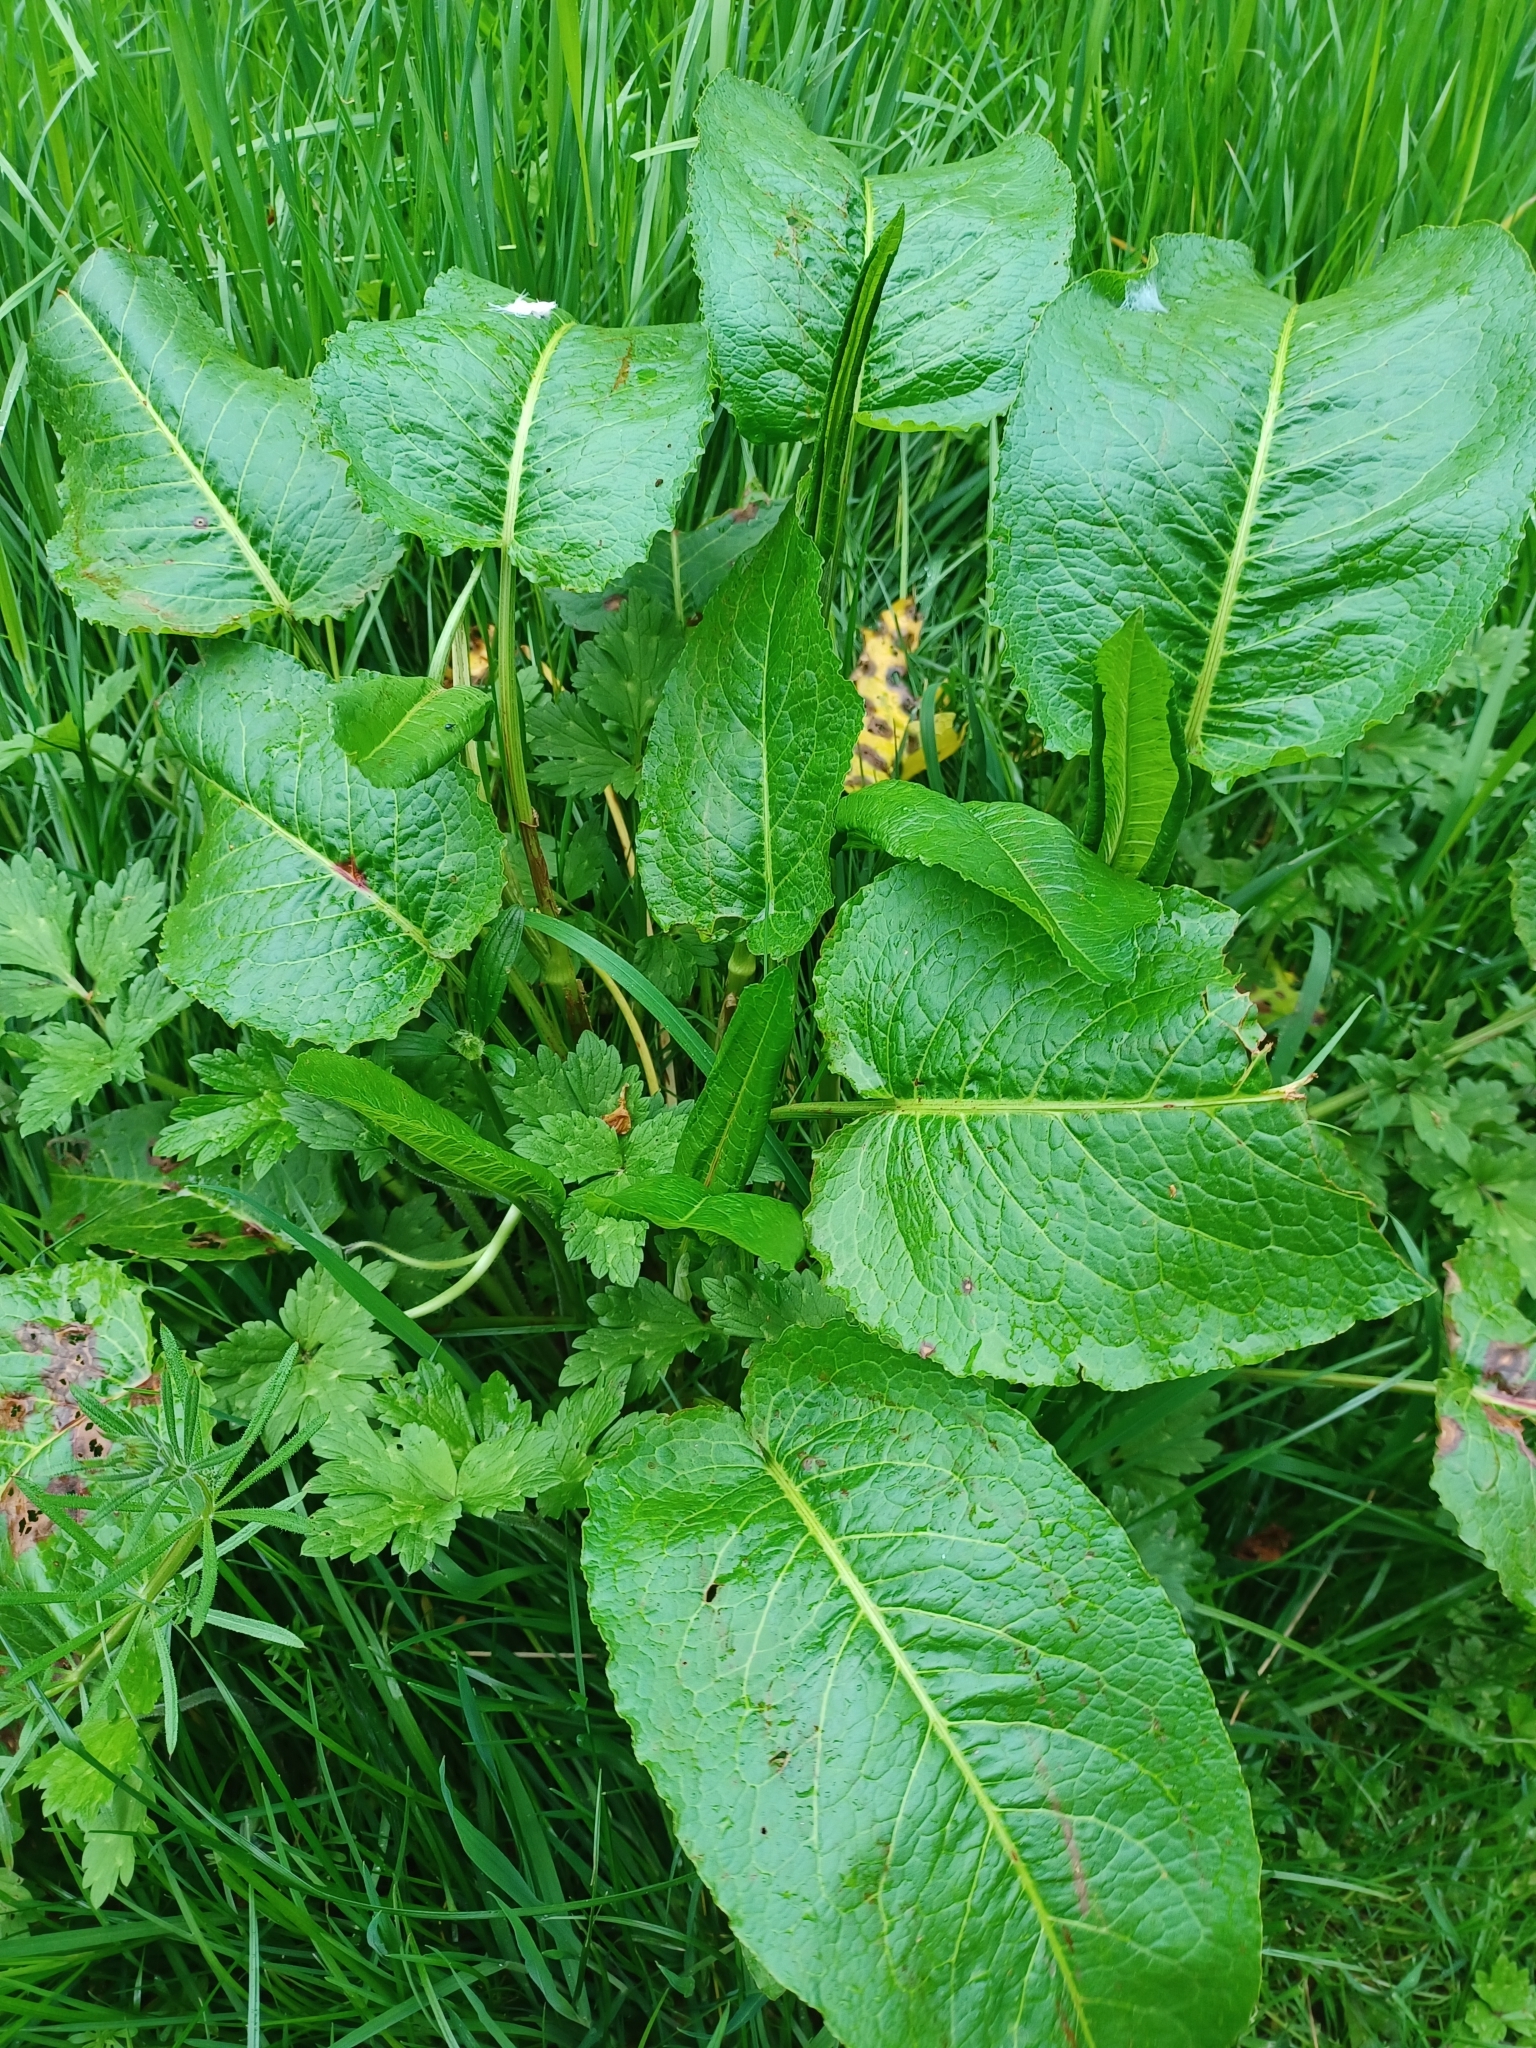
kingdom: Plantae
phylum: Tracheophyta
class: Magnoliopsida
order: Caryophyllales
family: Polygonaceae
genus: Rumex
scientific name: Rumex obtusifolius
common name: Bitter dock
